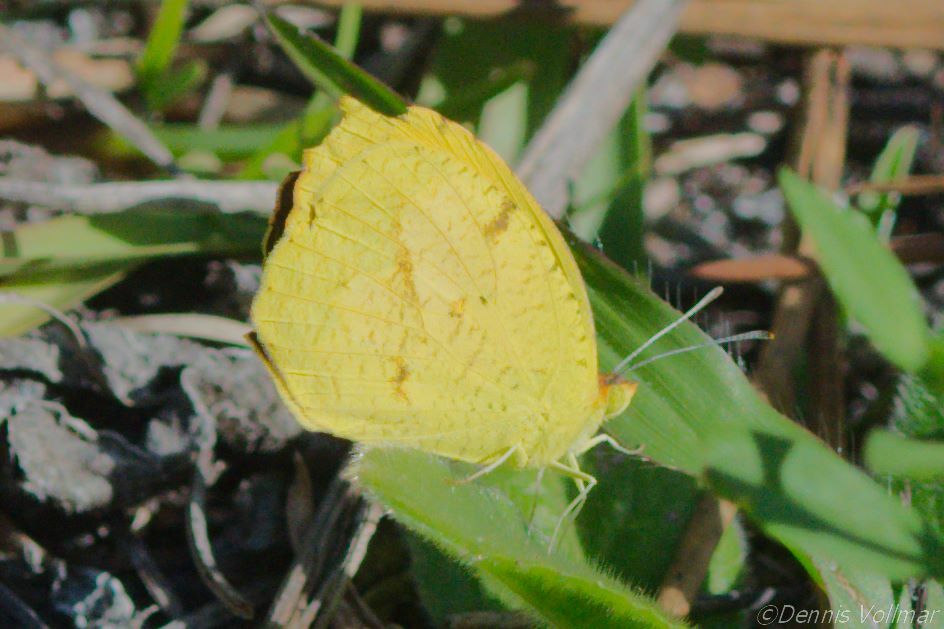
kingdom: Animalia
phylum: Arthropoda
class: Insecta
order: Lepidoptera
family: Pieridae
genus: Abaeis
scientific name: Abaeis nicippe
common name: Sleepy orange
